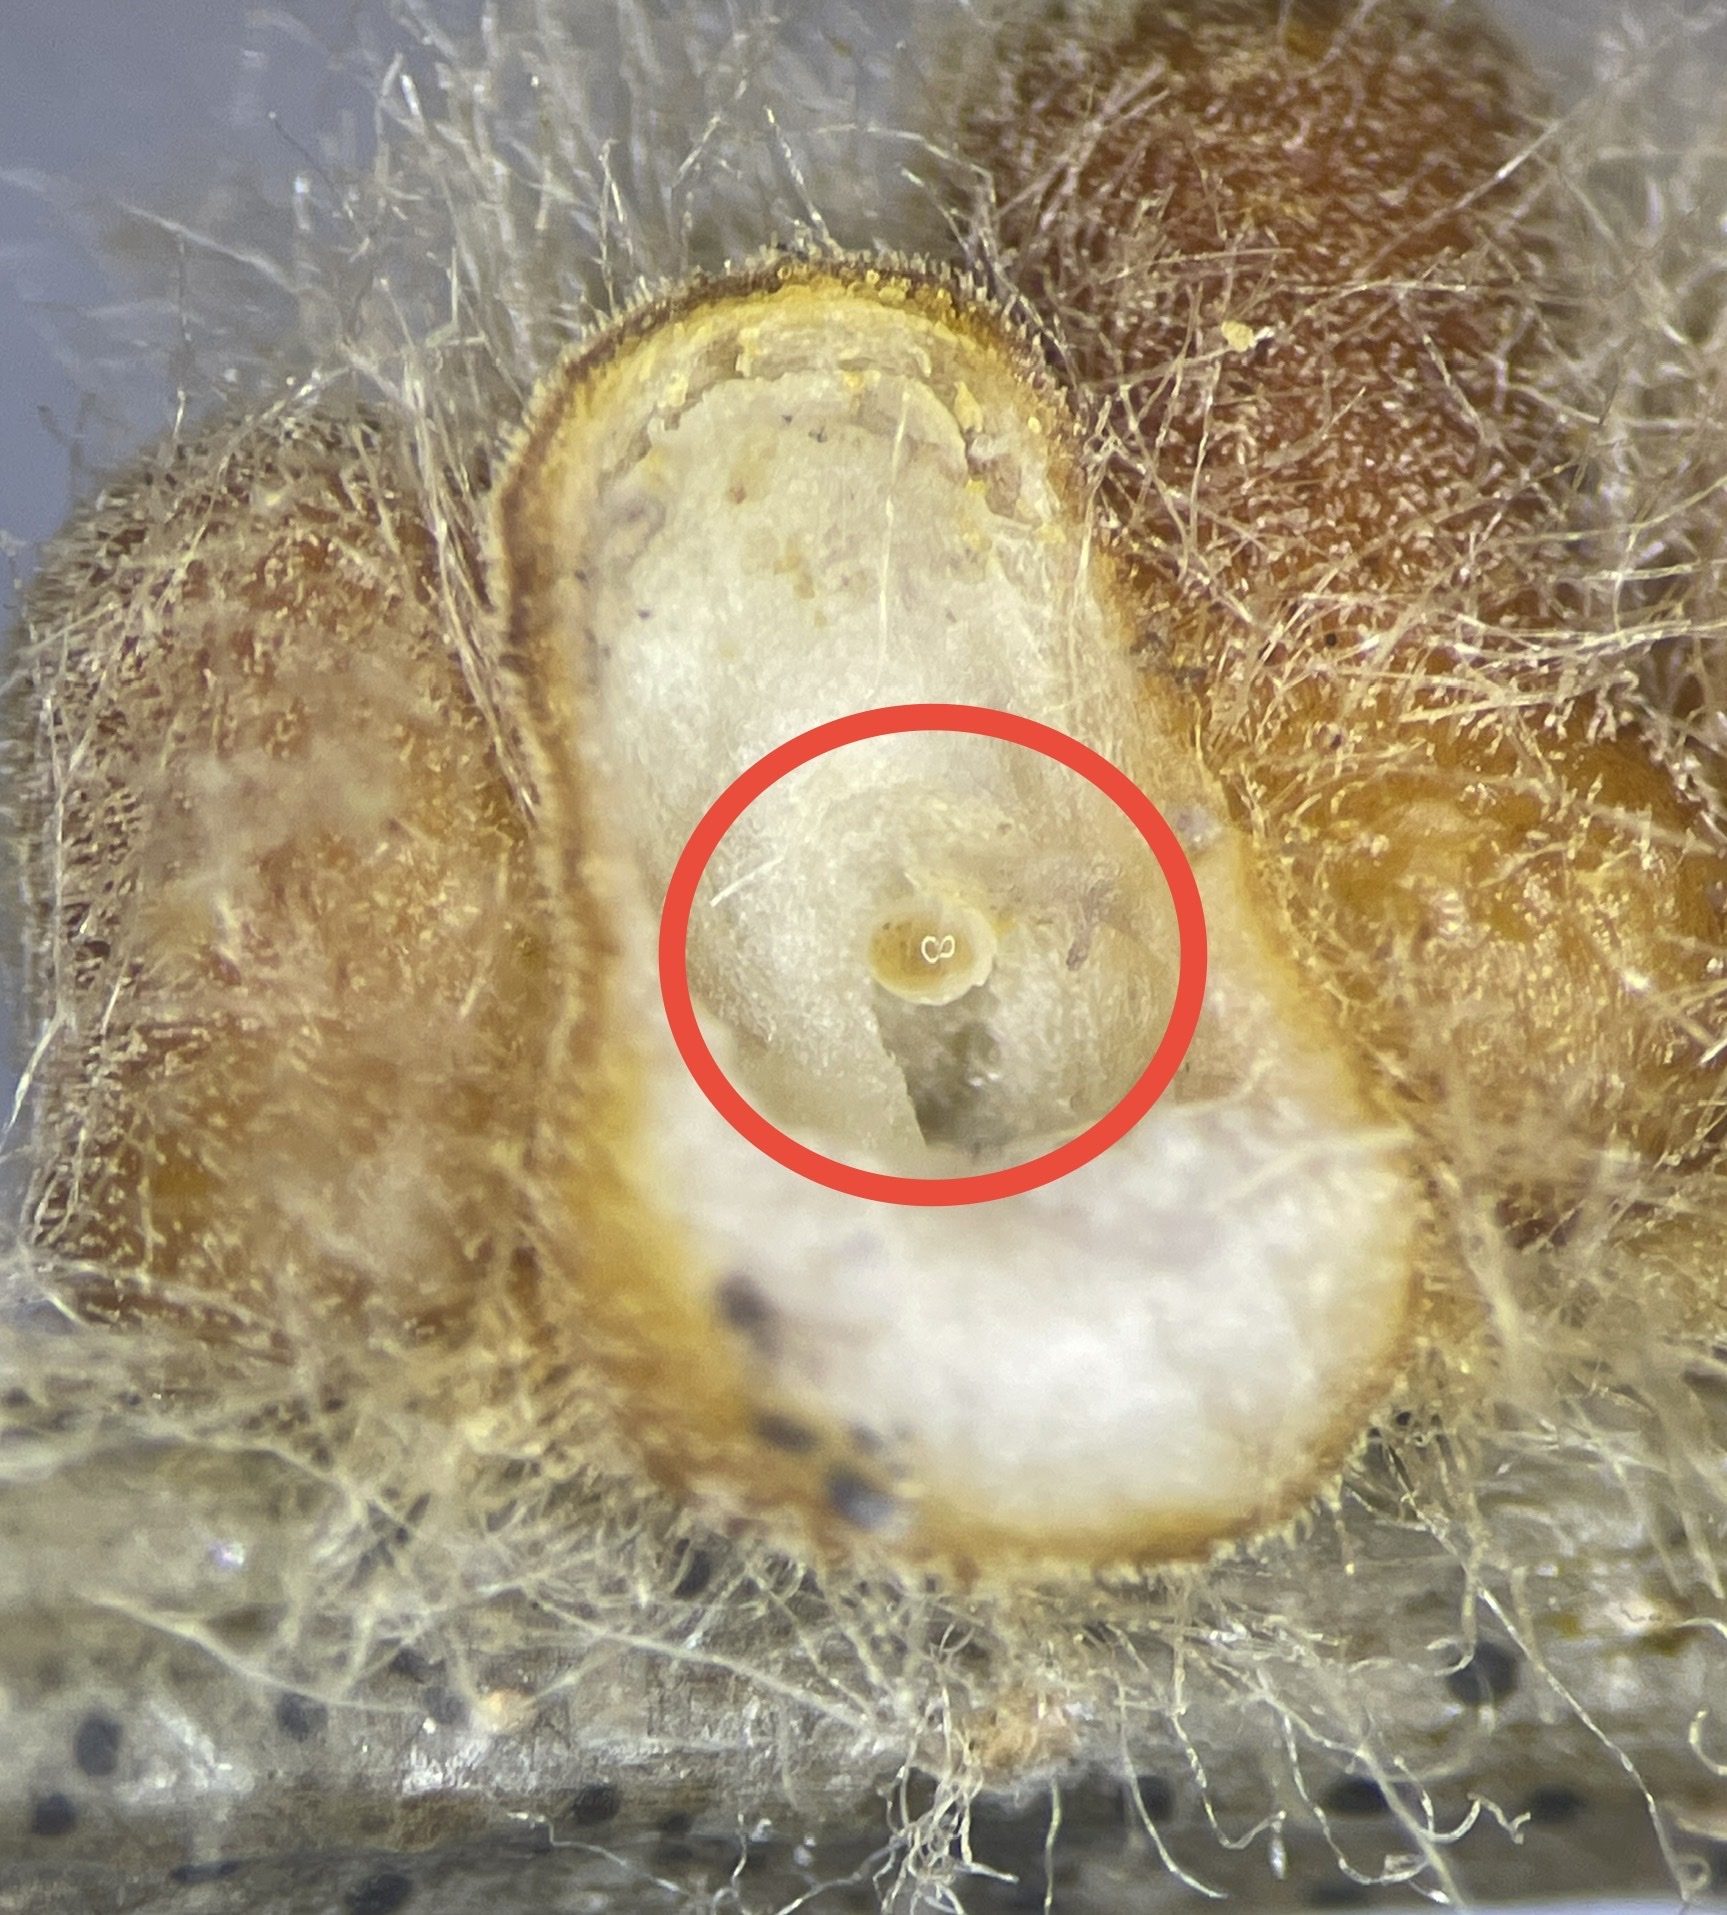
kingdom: Animalia
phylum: Arthropoda
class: Insecta
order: Hymenoptera
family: Cynipidae
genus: Andricus
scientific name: Andricus quercusflocci
